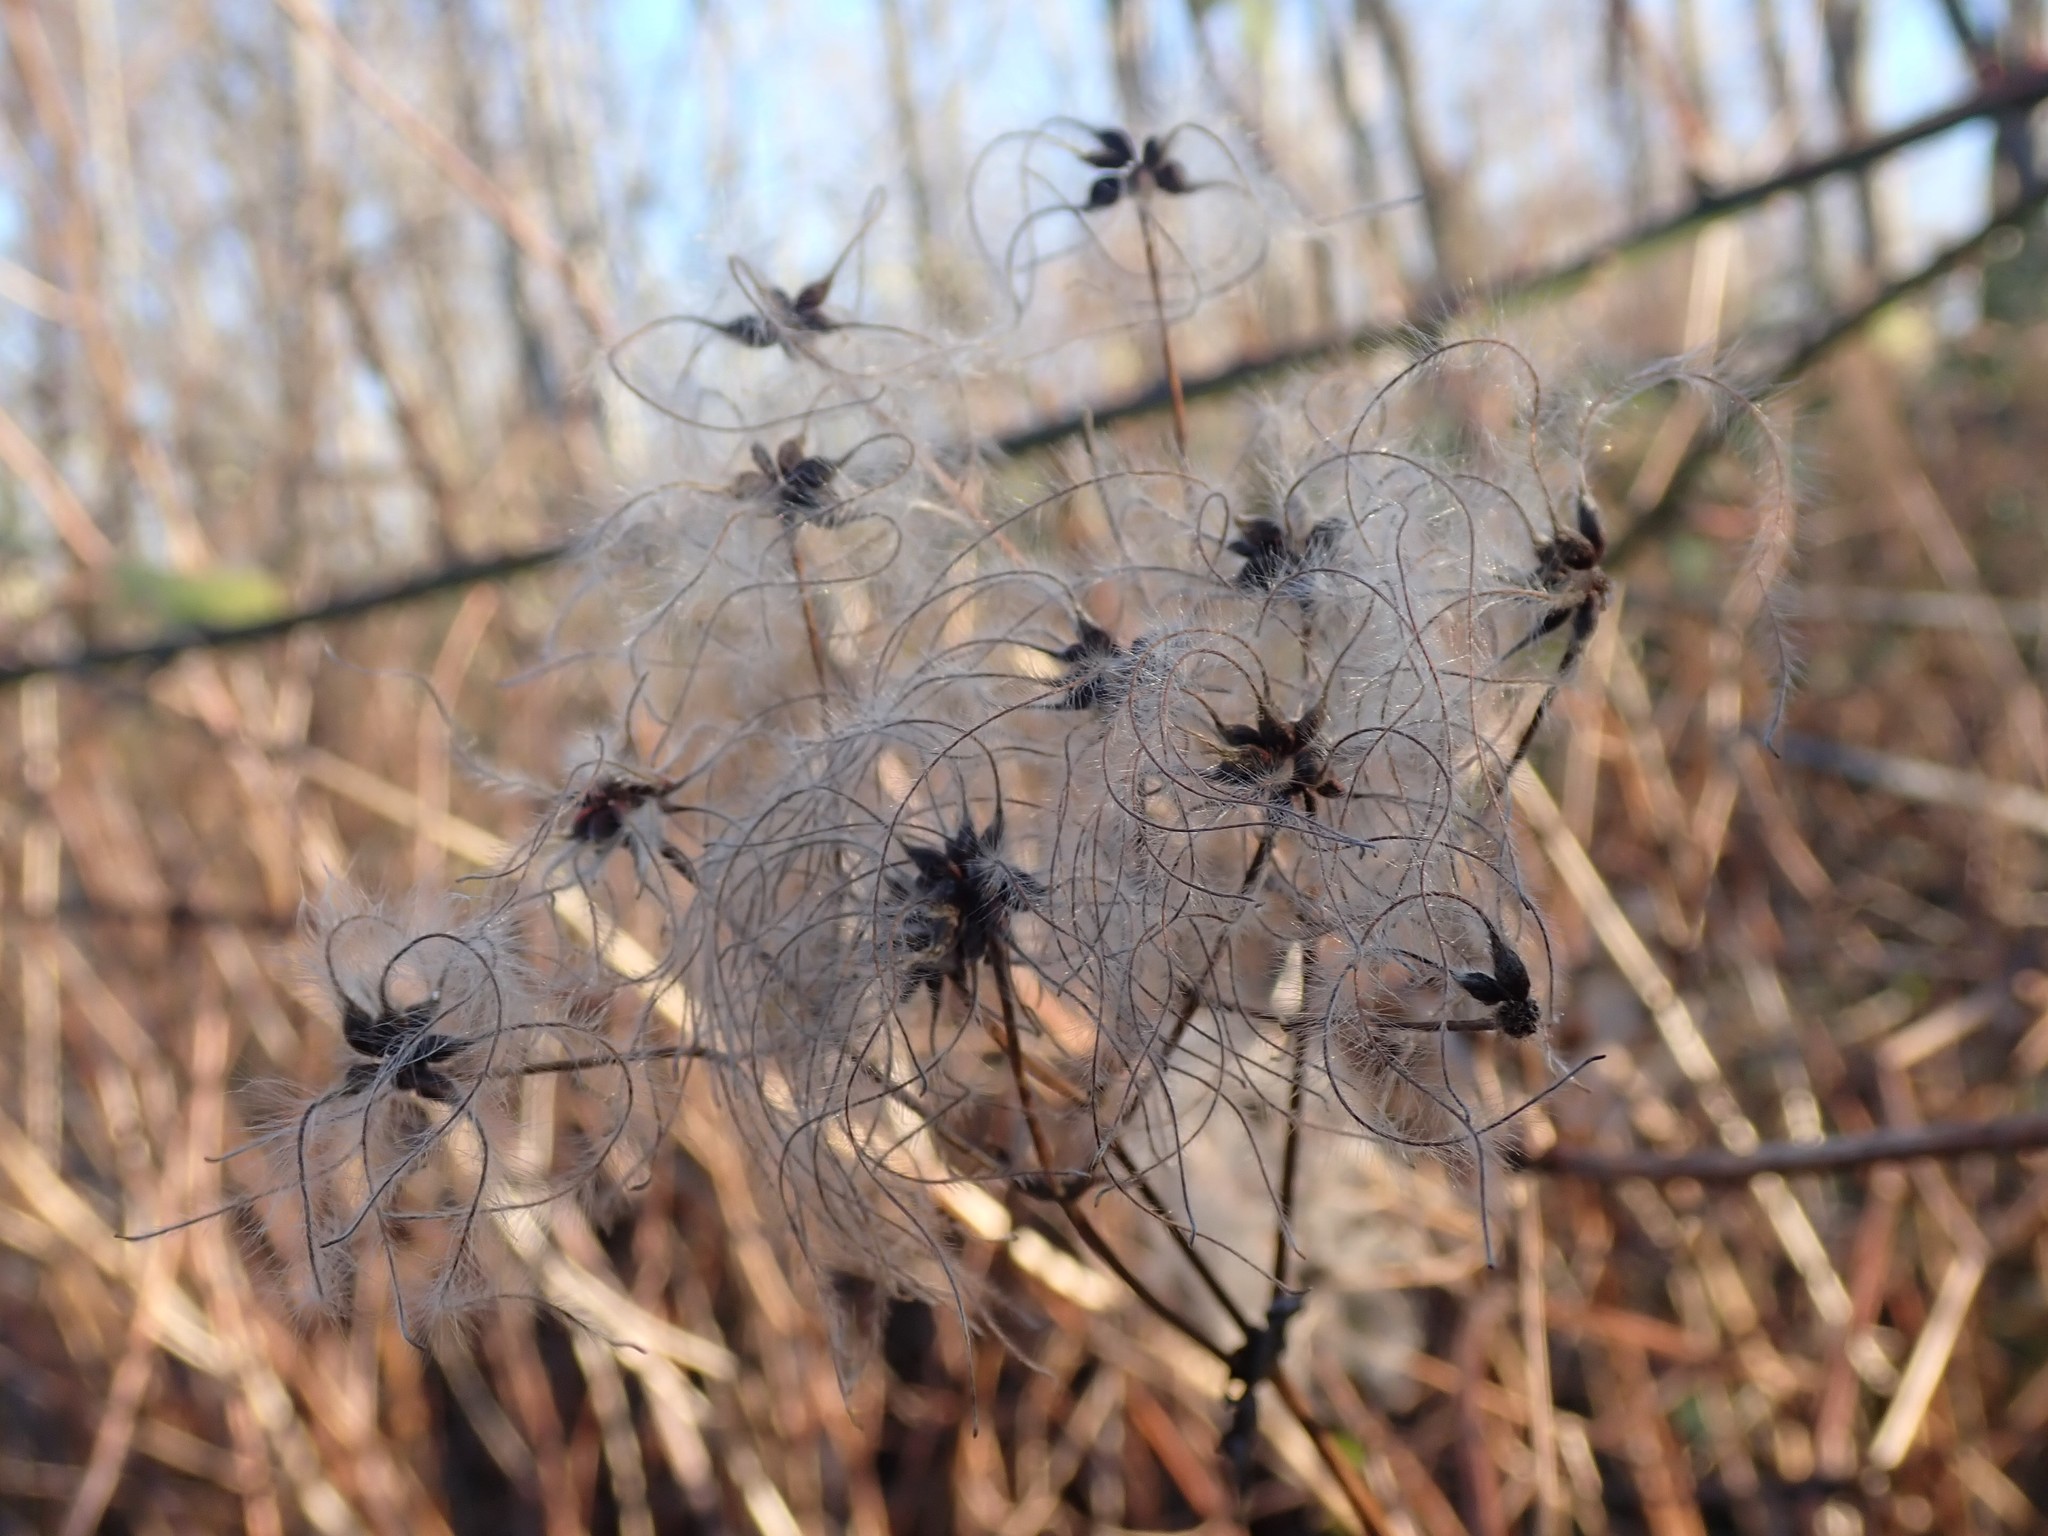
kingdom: Plantae
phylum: Tracheophyta
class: Magnoliopsida
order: Ranunculales
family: Ranunculaceae
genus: Clematis
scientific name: Clematis vitalba
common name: Evergreen clematis
